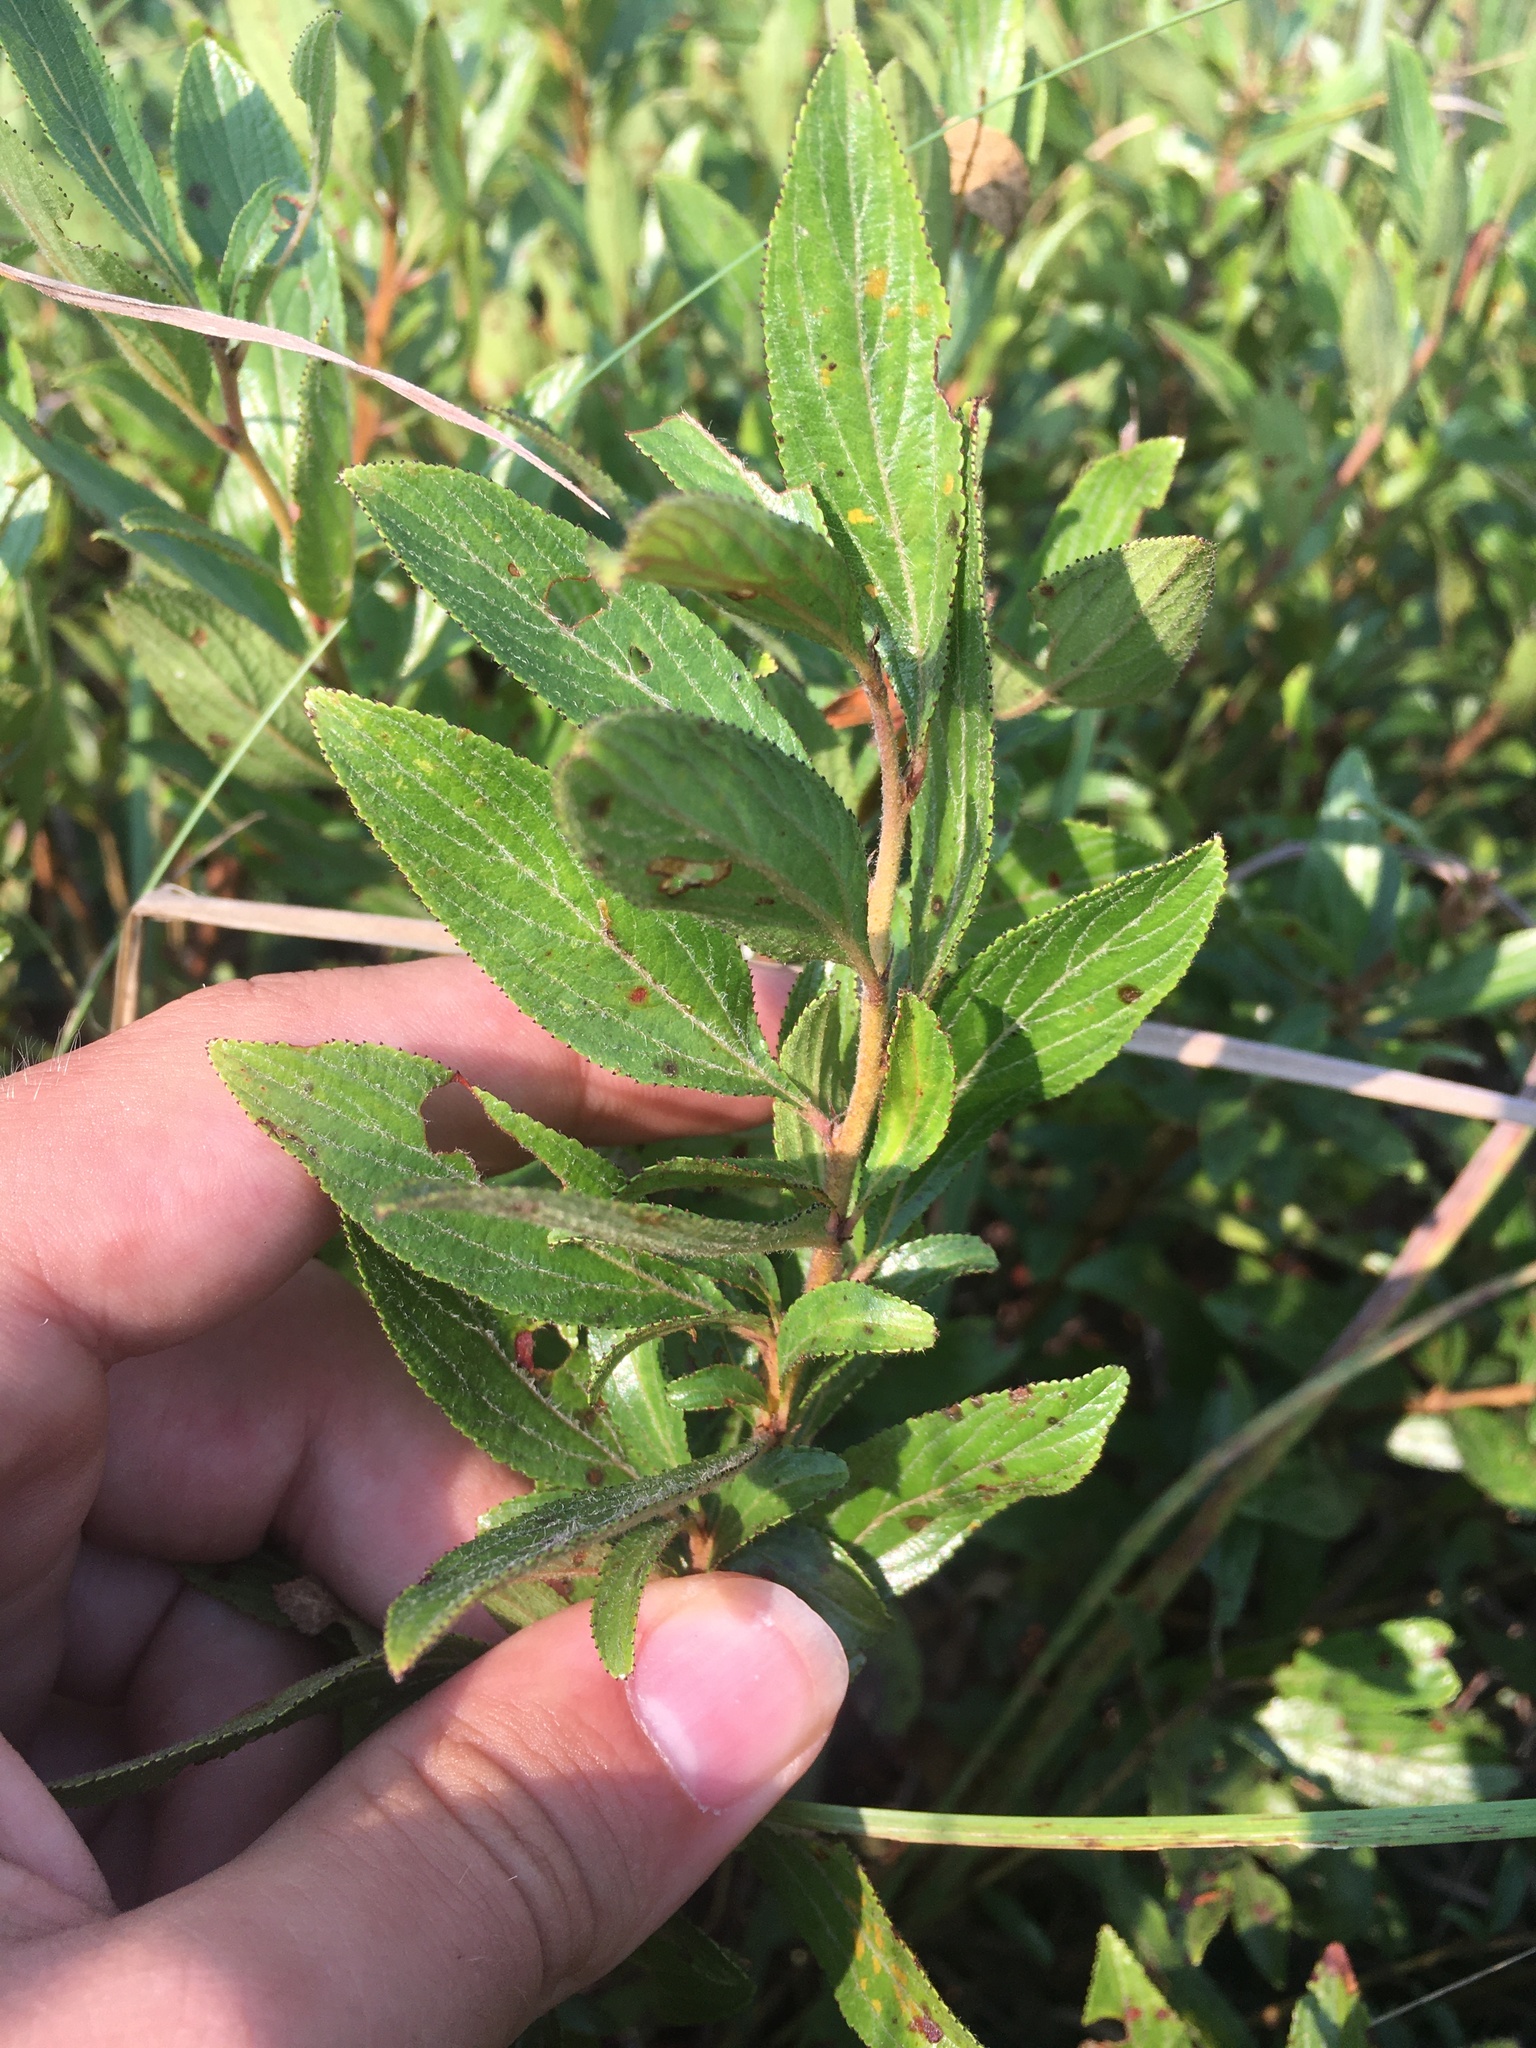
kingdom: Plantae
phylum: Tracheophyta
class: Magnoliopsida
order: Rosales
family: Rhamnaceae
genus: Ceanothus
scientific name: Ceanothus herbaceus
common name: Inland ceanothus
